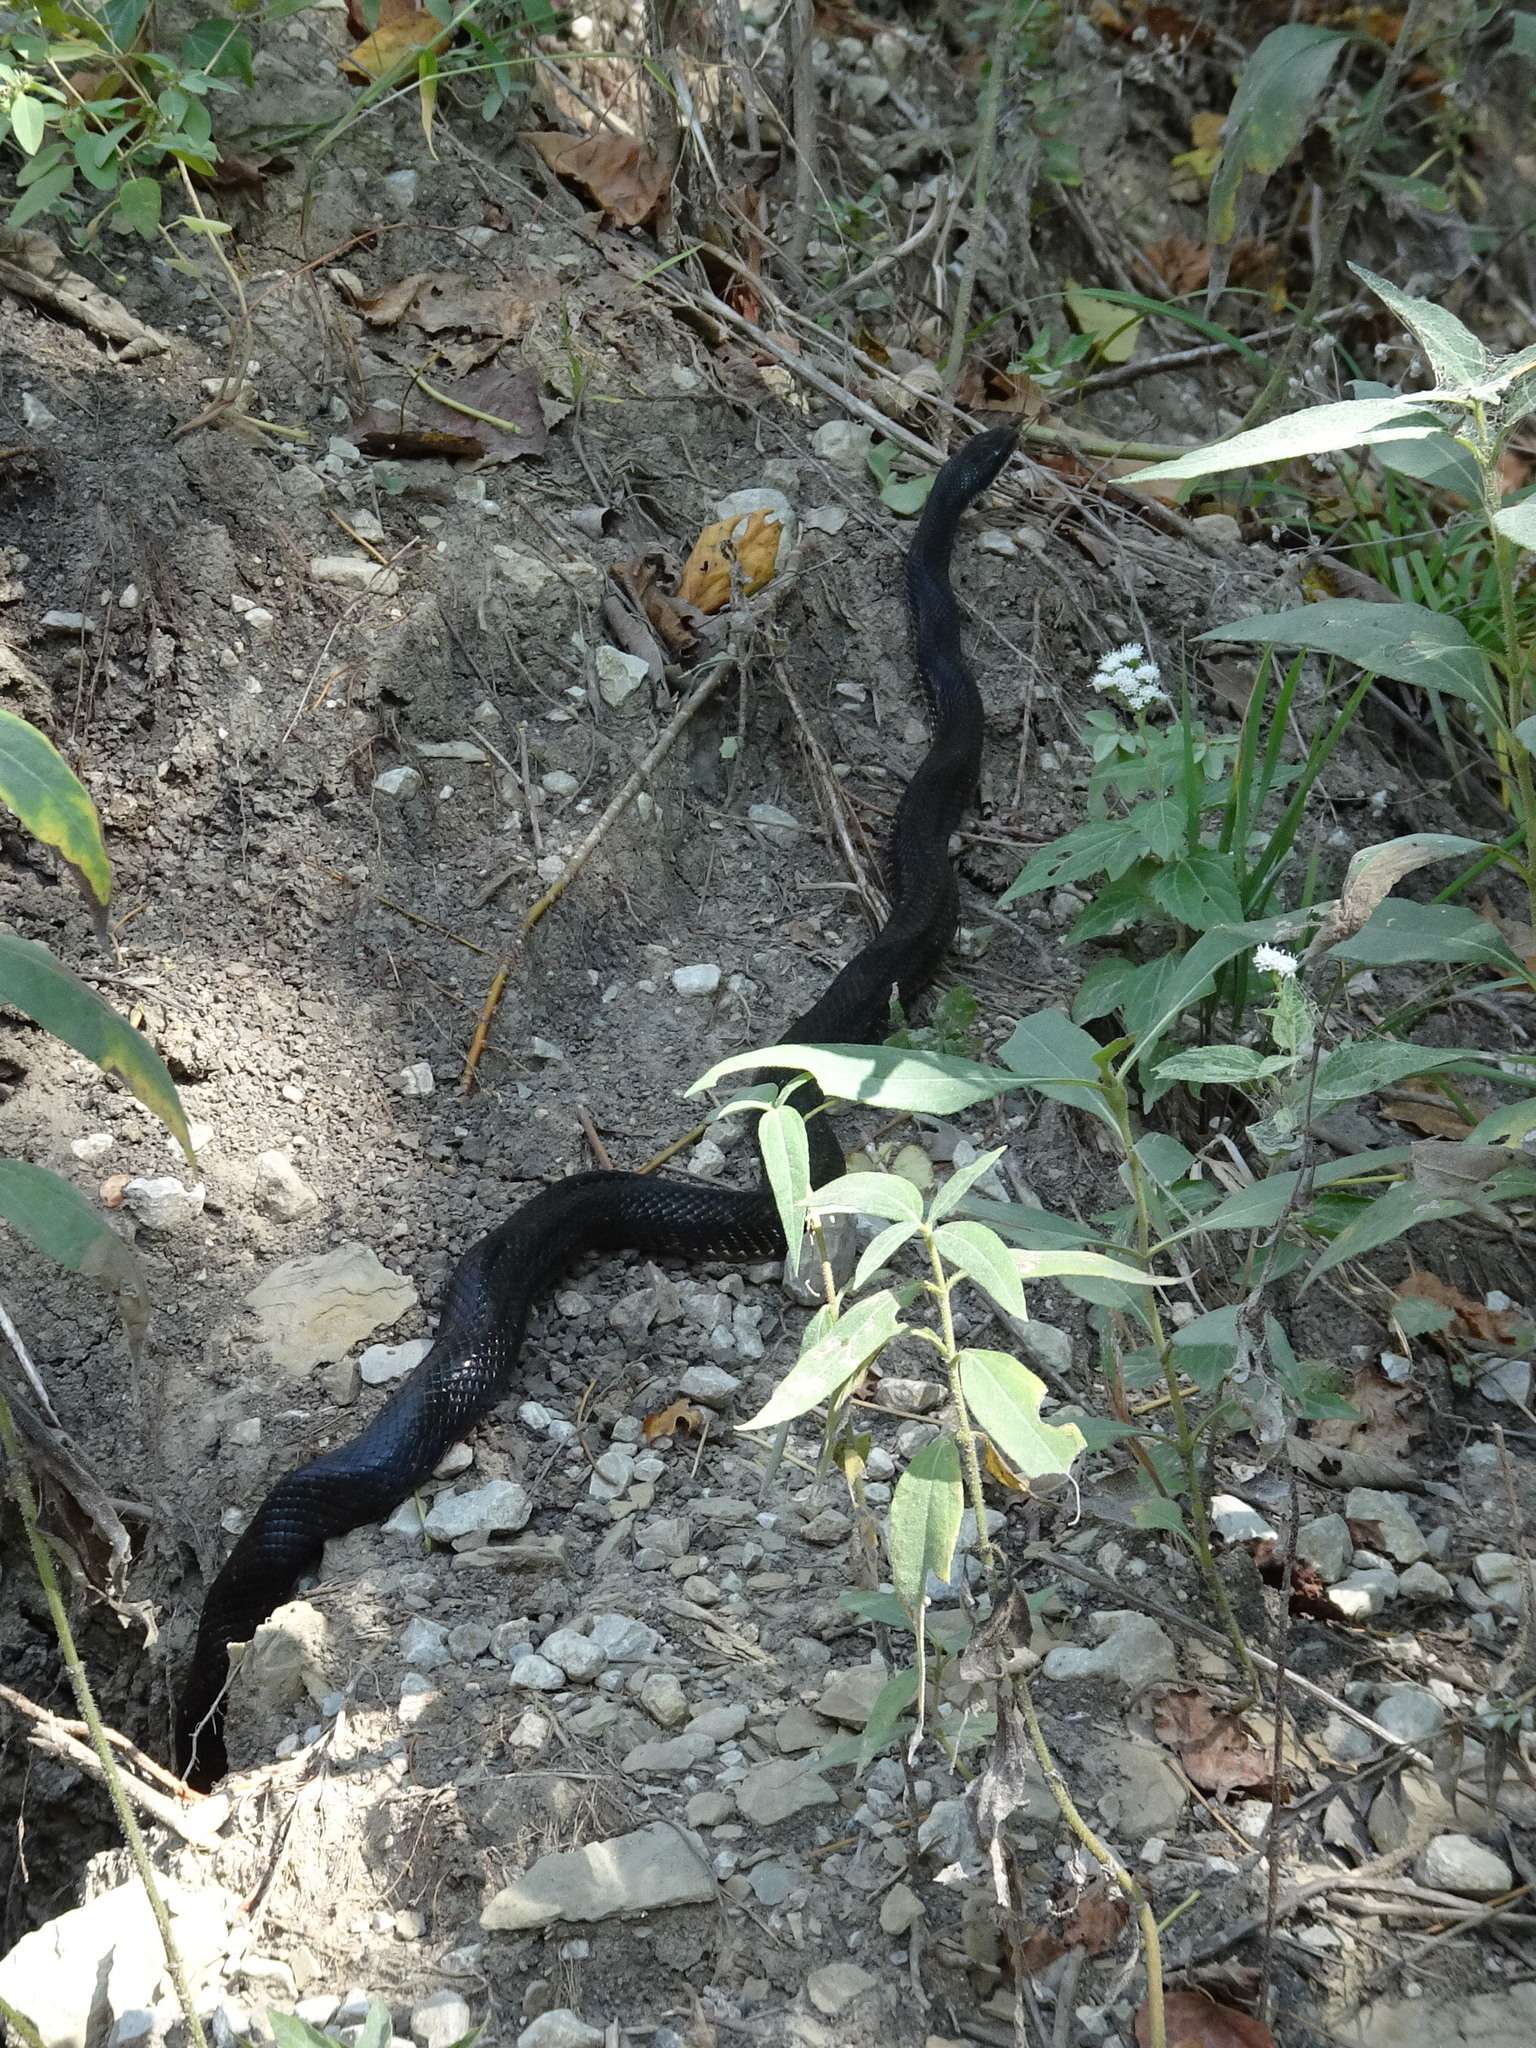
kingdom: Animalia
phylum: Chordata
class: Squamata
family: Colubridae
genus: Pantherophis
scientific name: Pantherophis obsoletus
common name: Black rat snake
